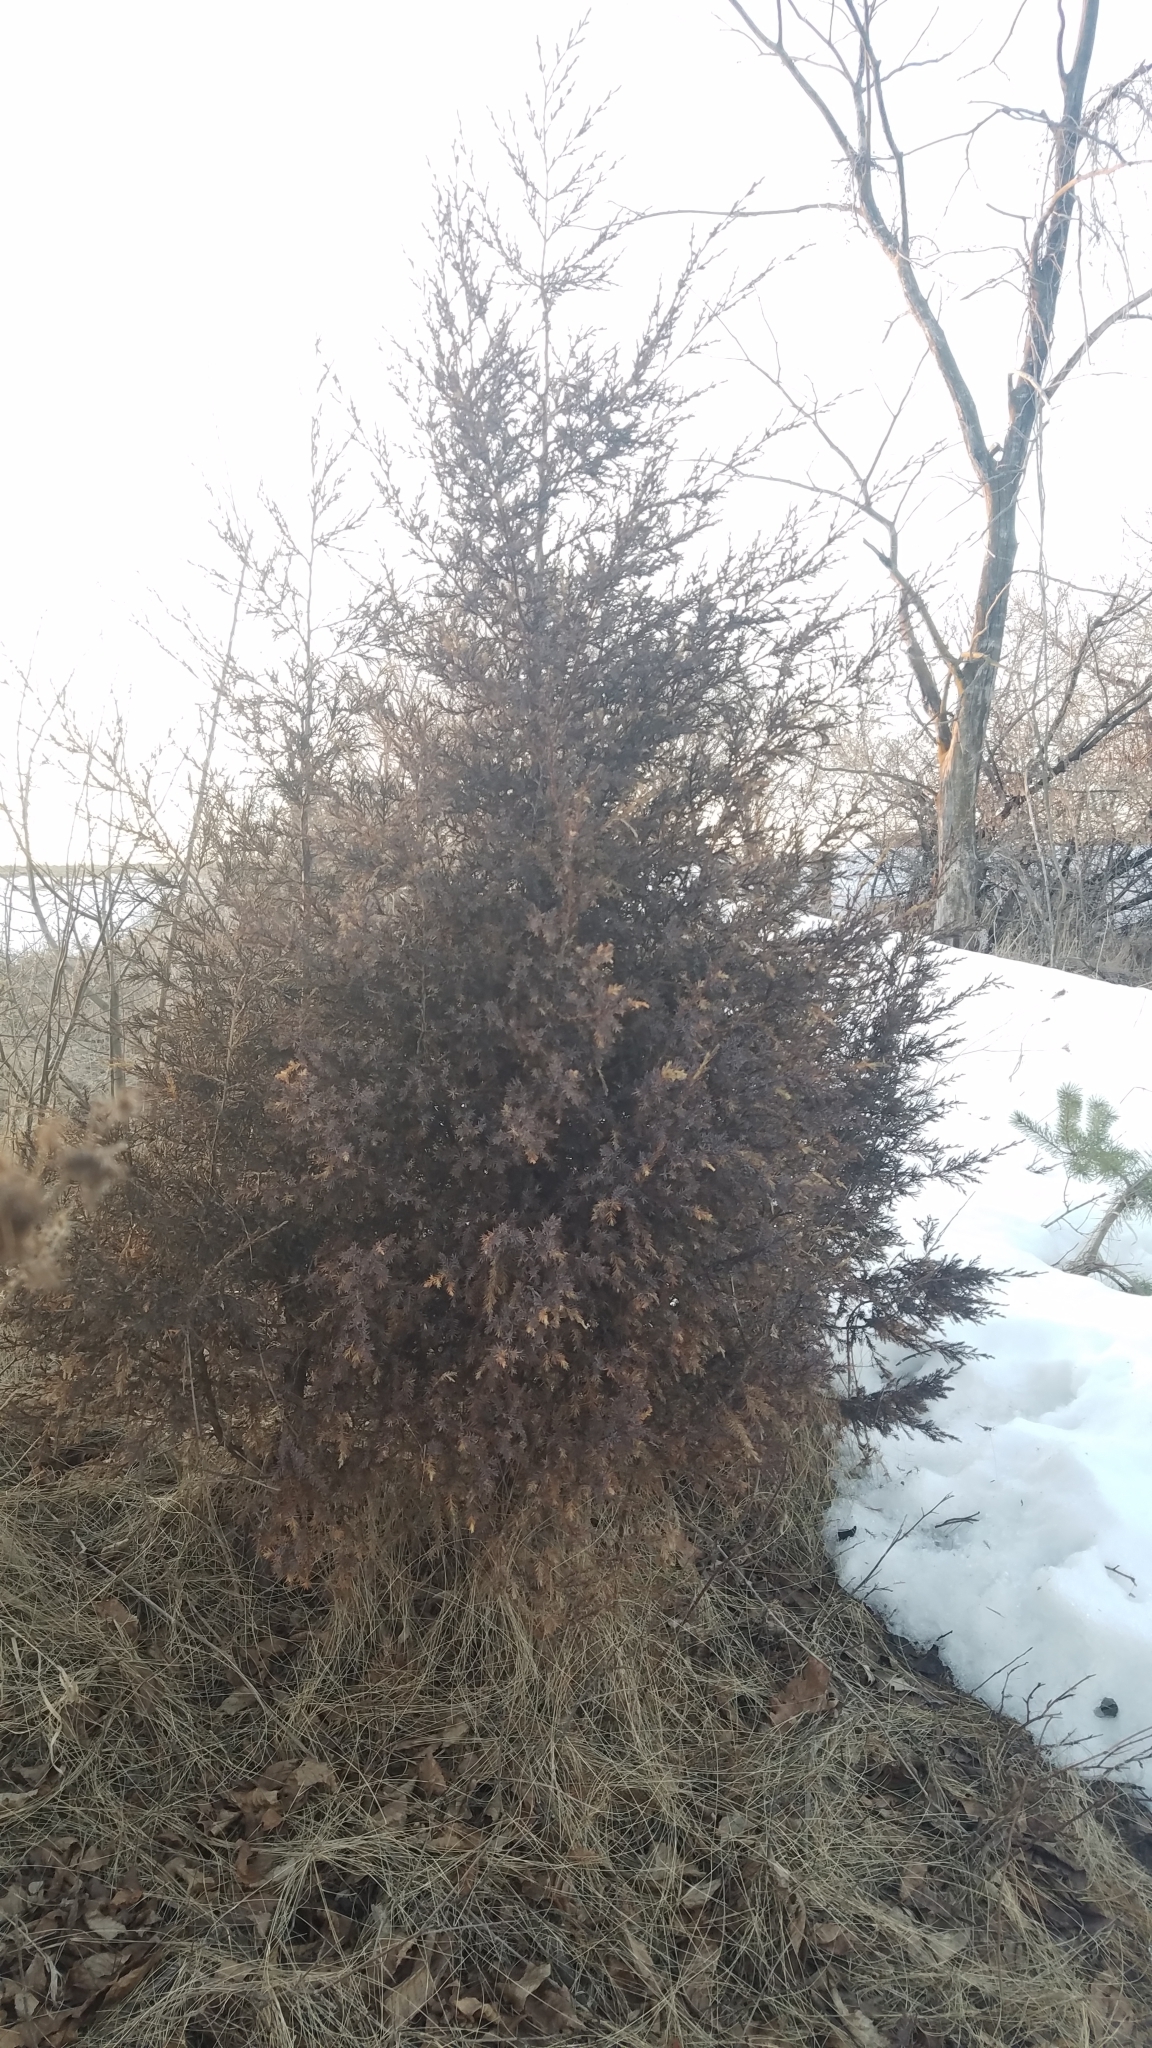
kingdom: Plantae
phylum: Tracheophyta
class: Pinopsida
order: Pinales
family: Cupressaceae
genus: Juniperus
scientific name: Juniperus virginiana
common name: Red juniper
